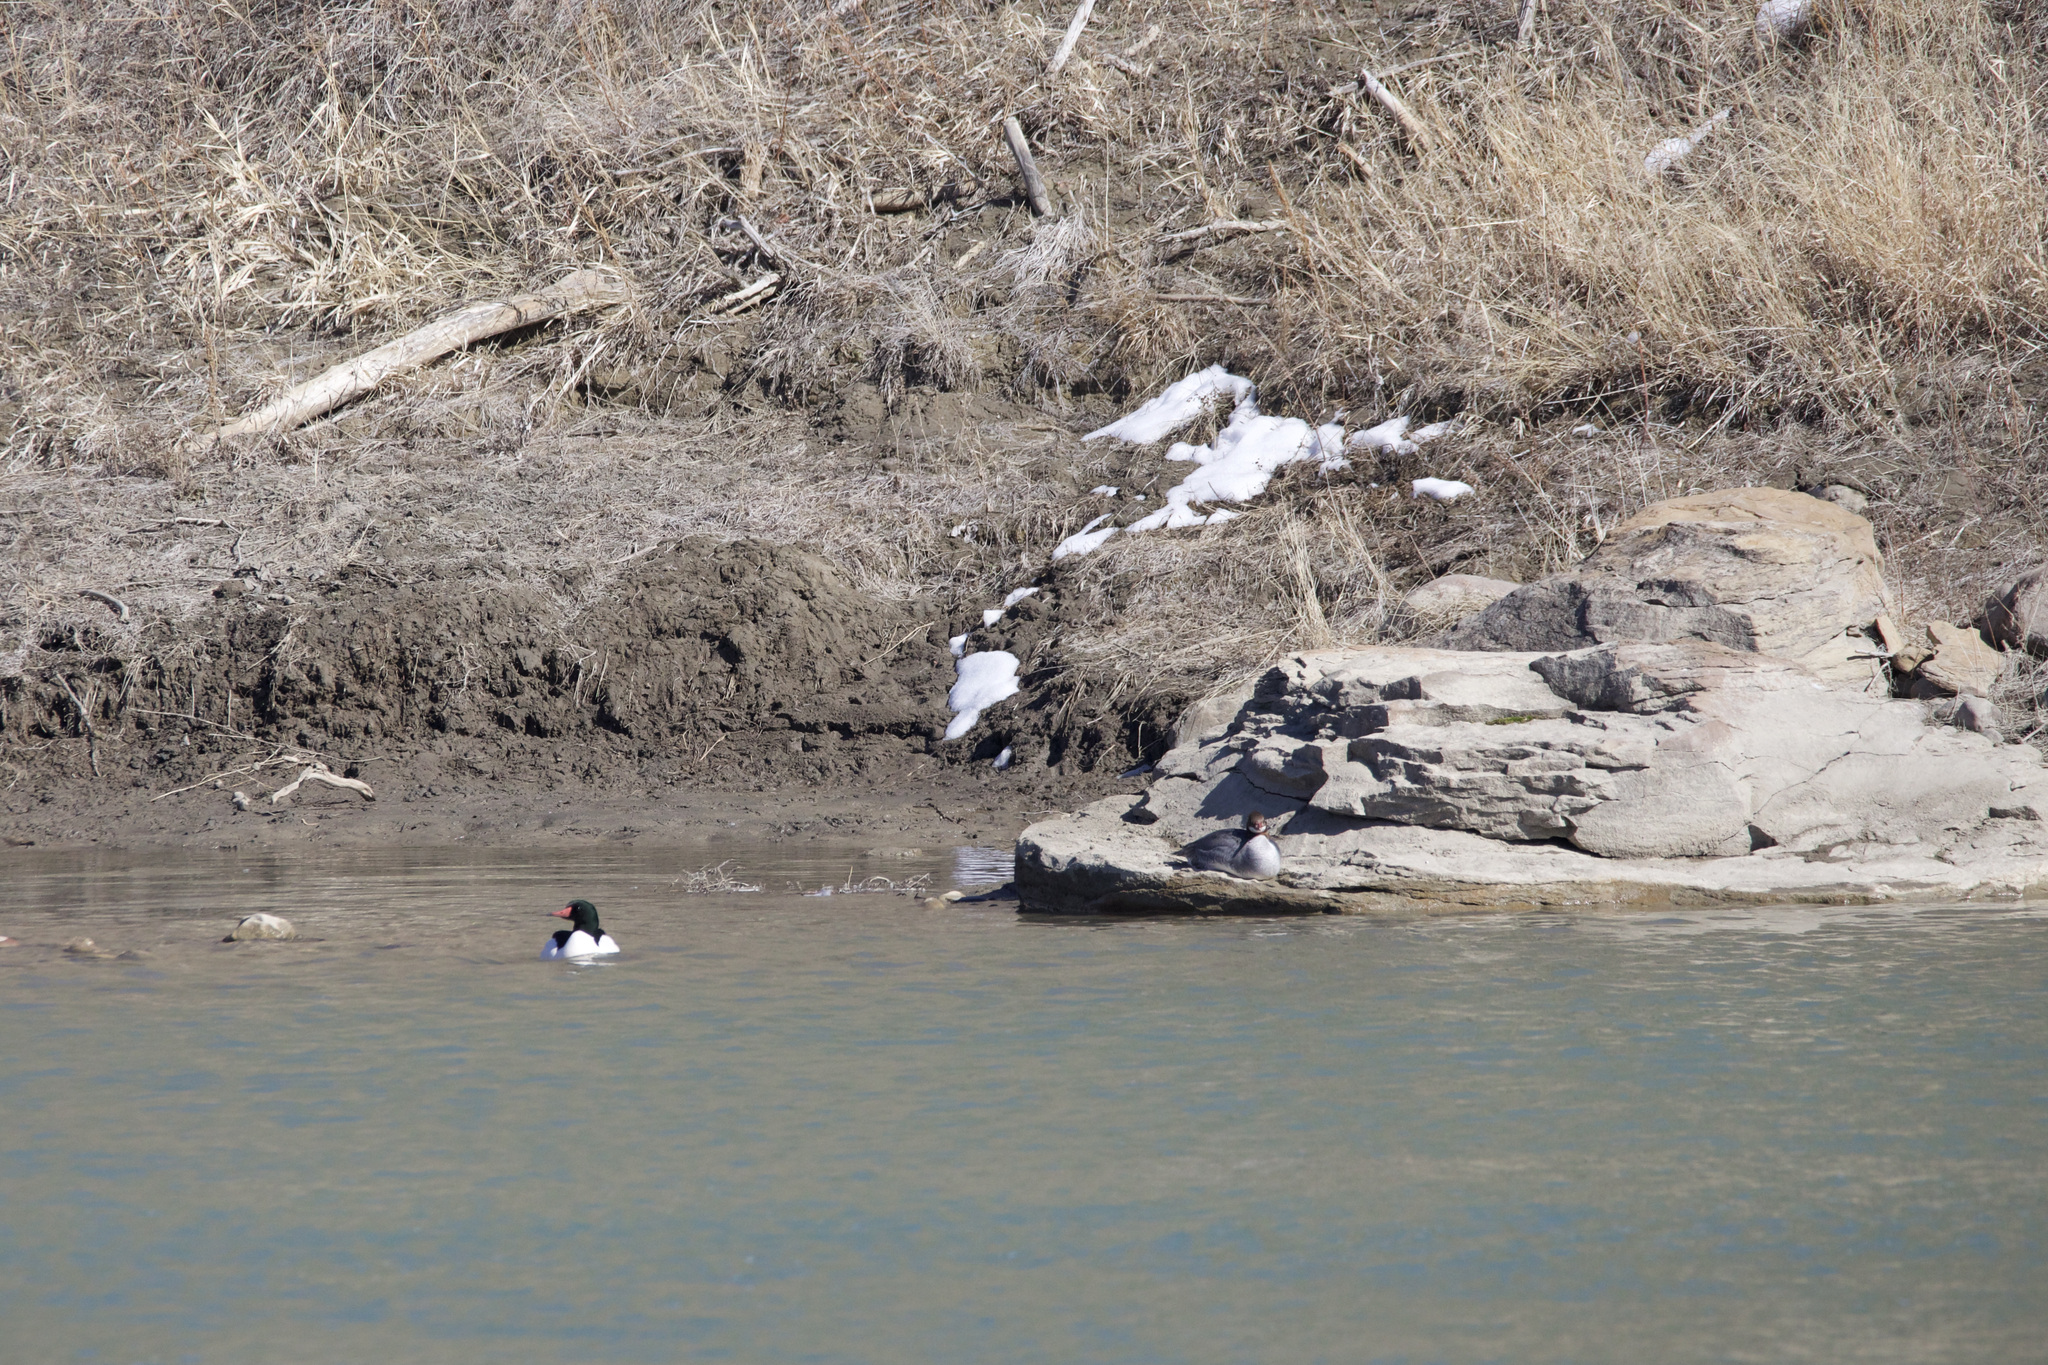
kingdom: Animalia
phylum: Chordata
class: Aves
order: Anseriformes
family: Anatidae
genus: Mergus
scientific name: Mergus merganser
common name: Common merganser
